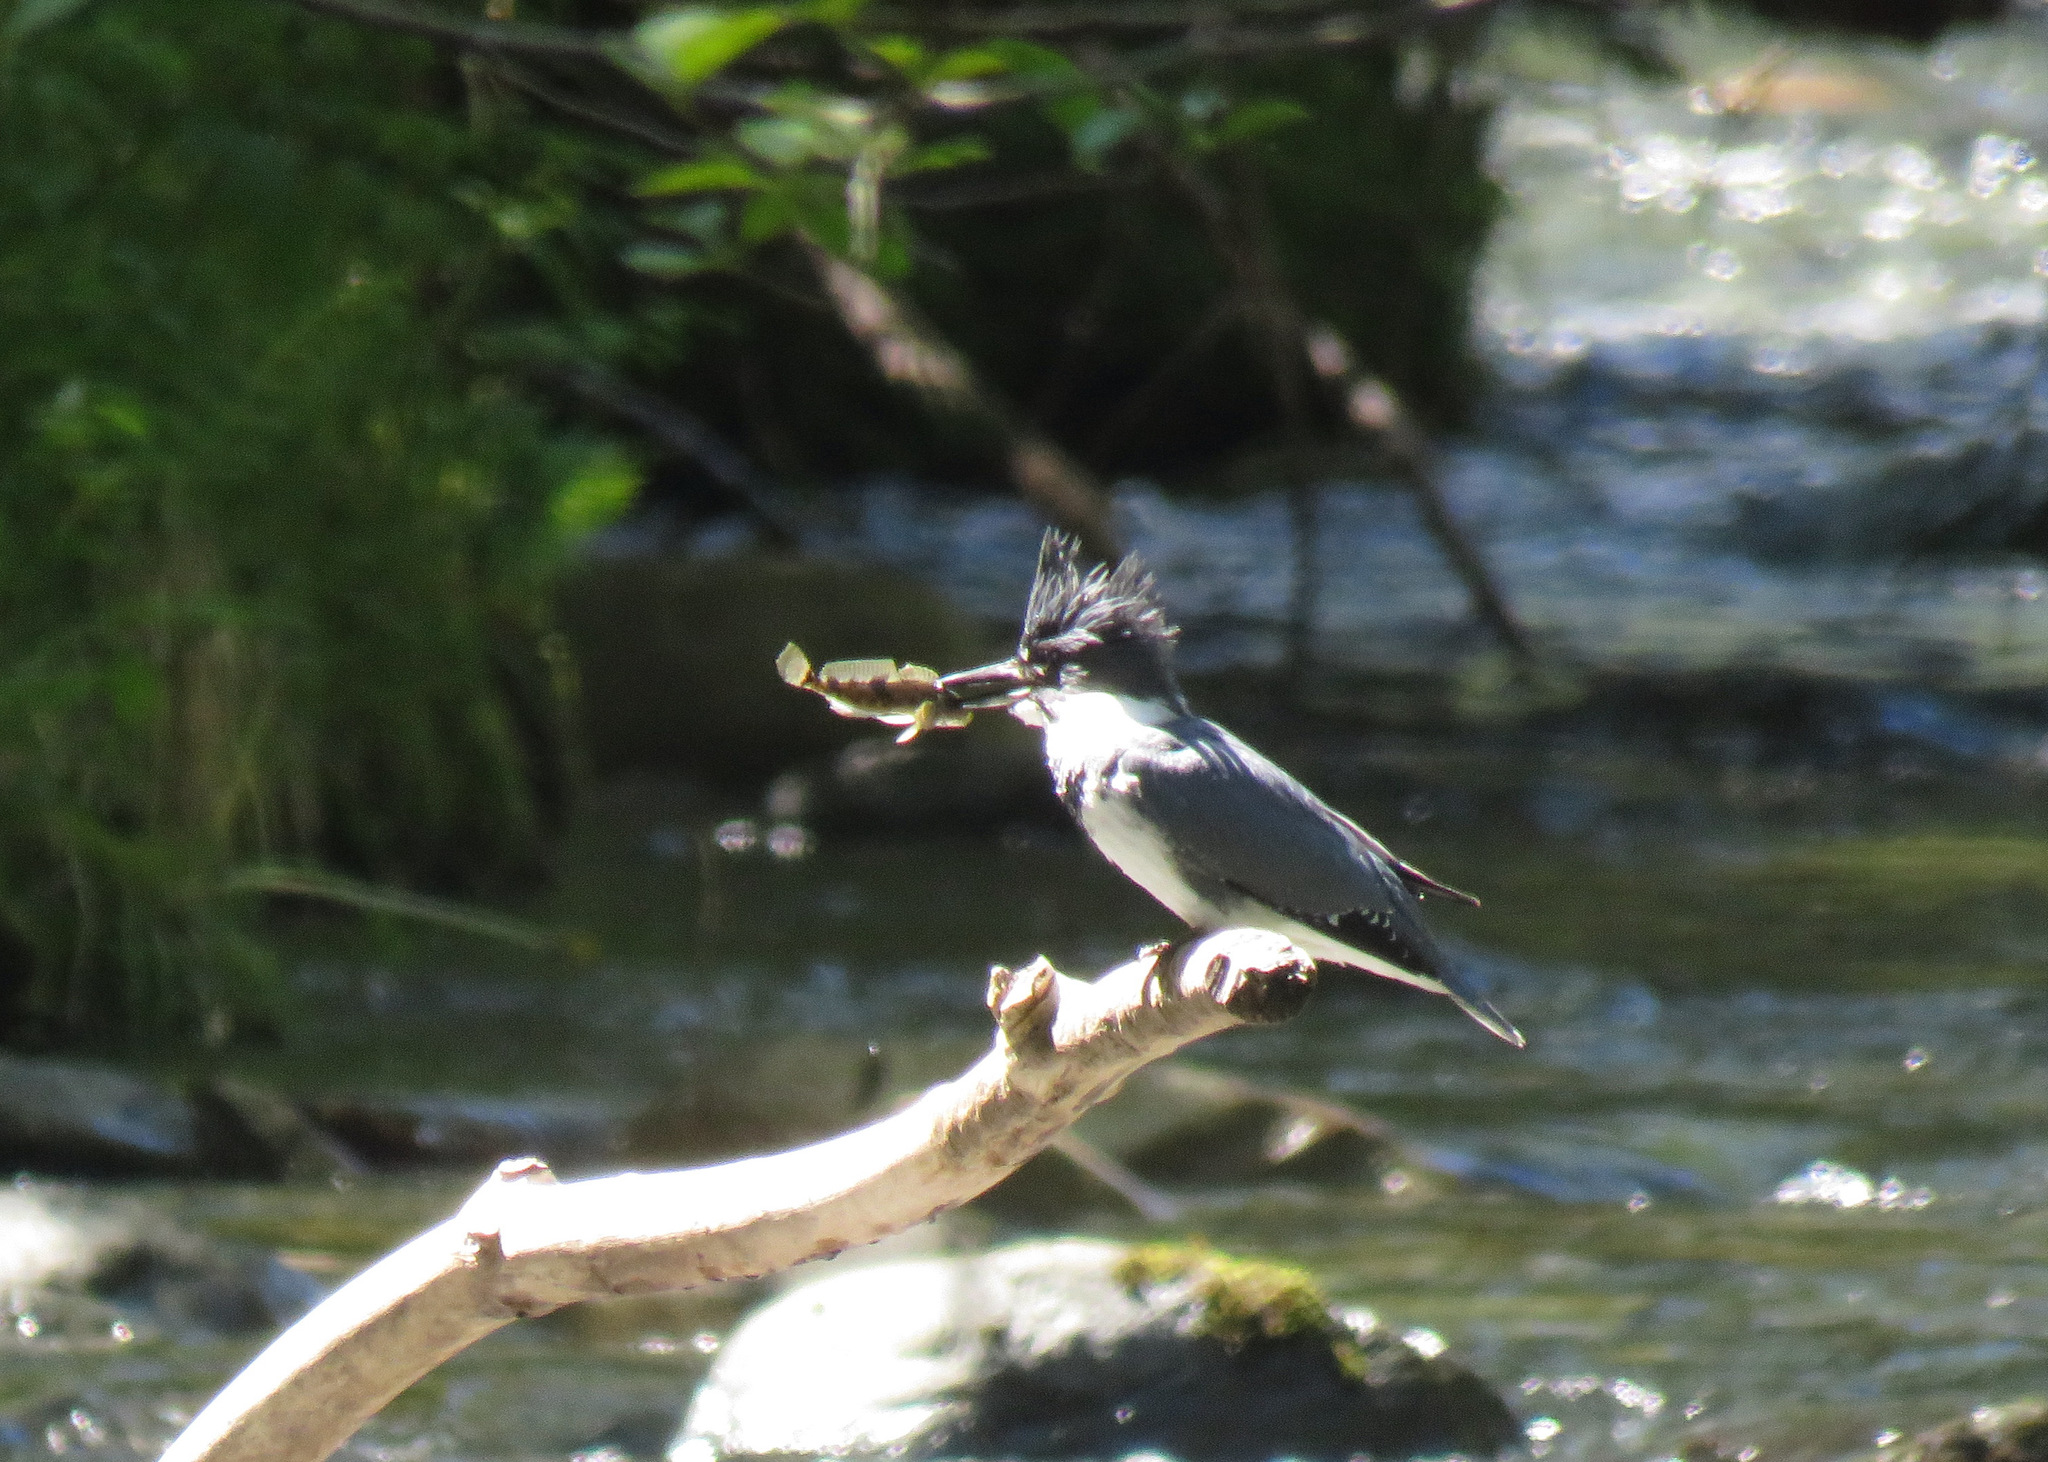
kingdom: Animalia
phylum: Chordata
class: Aves
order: Coraciiformes
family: Alcedinidae
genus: Megaceryle
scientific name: Megaceryle alcyon
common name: Belted kingfisher
